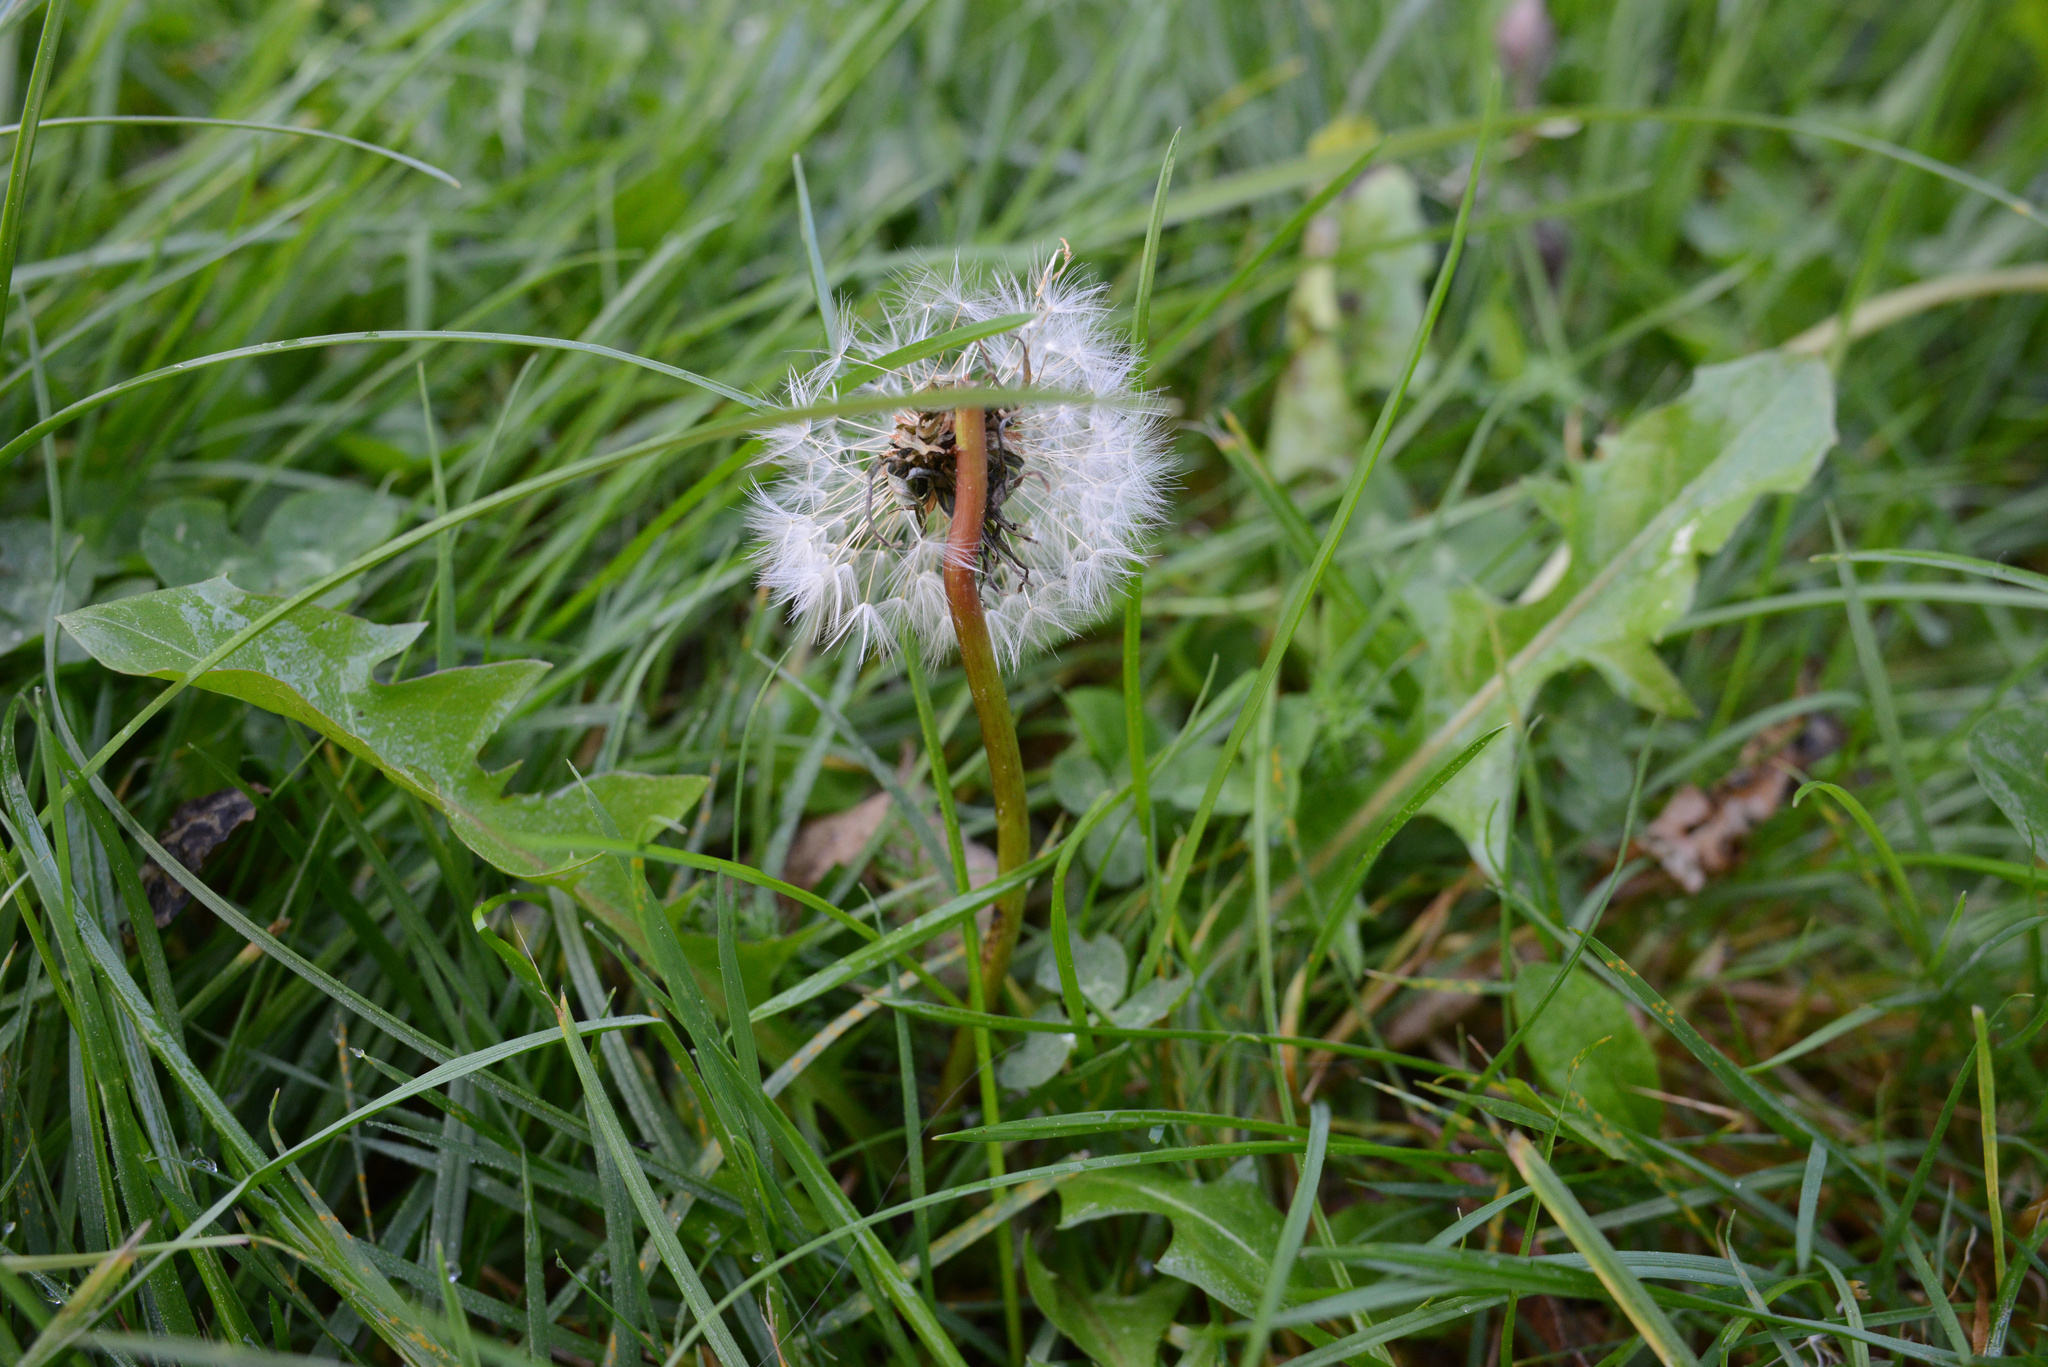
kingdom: Plantae
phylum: Tracheophyta
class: Magnoliopsida
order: Asterales
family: Asteraceae
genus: Taraxacum
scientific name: Taraxacum officinale
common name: Common dandelion
